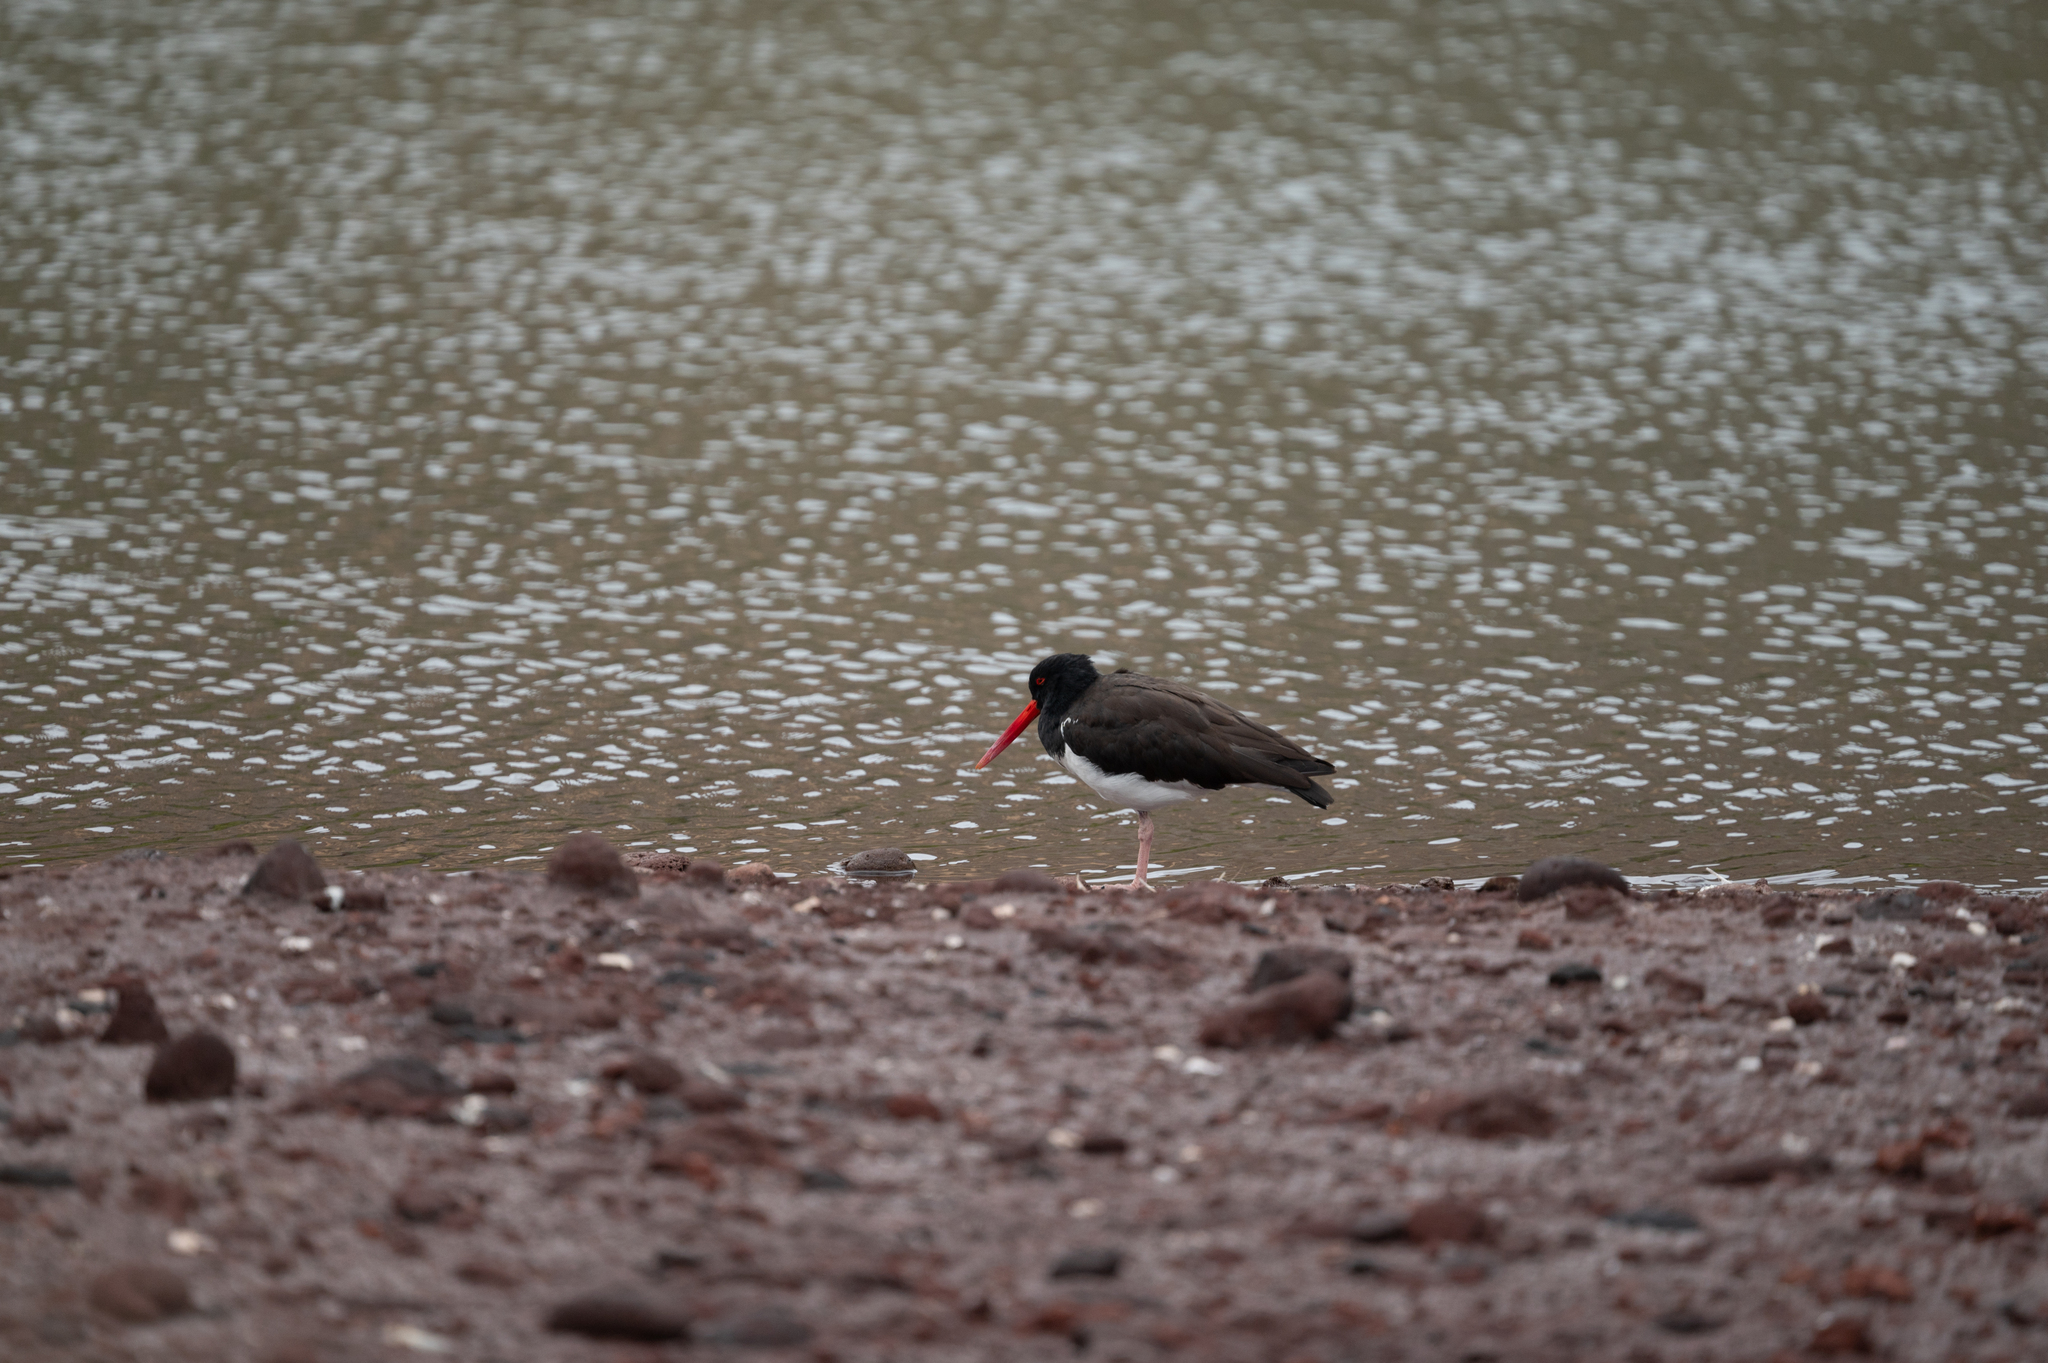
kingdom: Animalia
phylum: Chordata
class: Aves
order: Charadriiformes
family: Haematopodidae
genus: Haematopus
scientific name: Haematopus palliatus
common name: American oystercatcher
